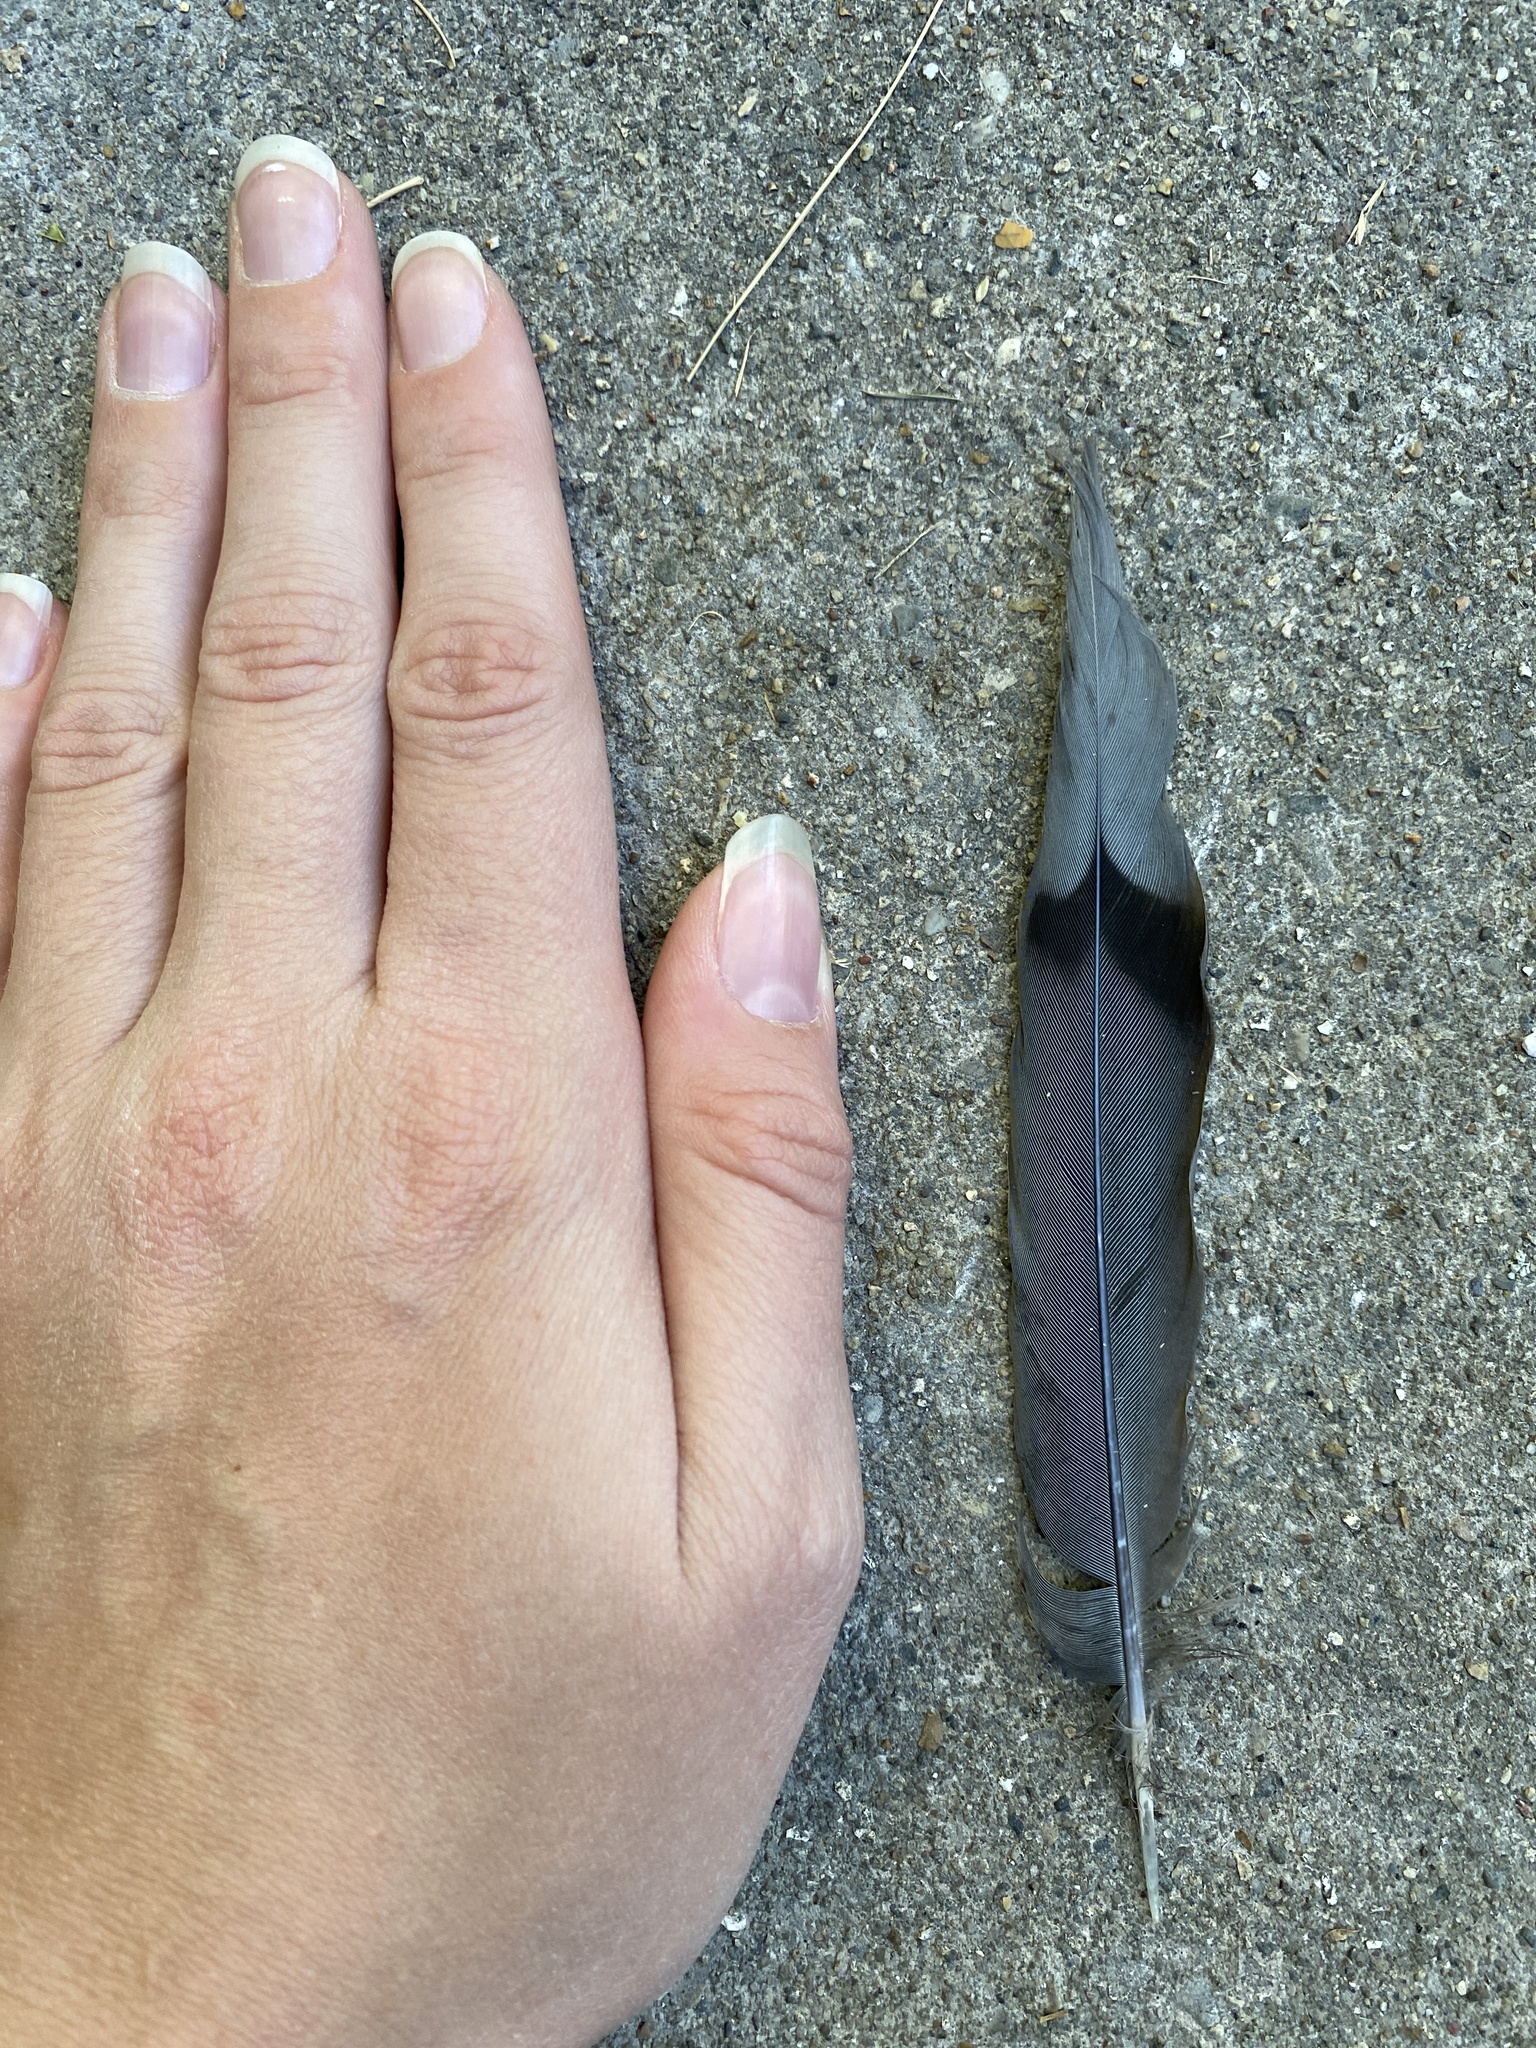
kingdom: Animalia
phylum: Chordata
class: Aves
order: Columbiformes
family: Columbidae
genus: Zenaida
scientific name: Zenaida macroura
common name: Mourning dove
